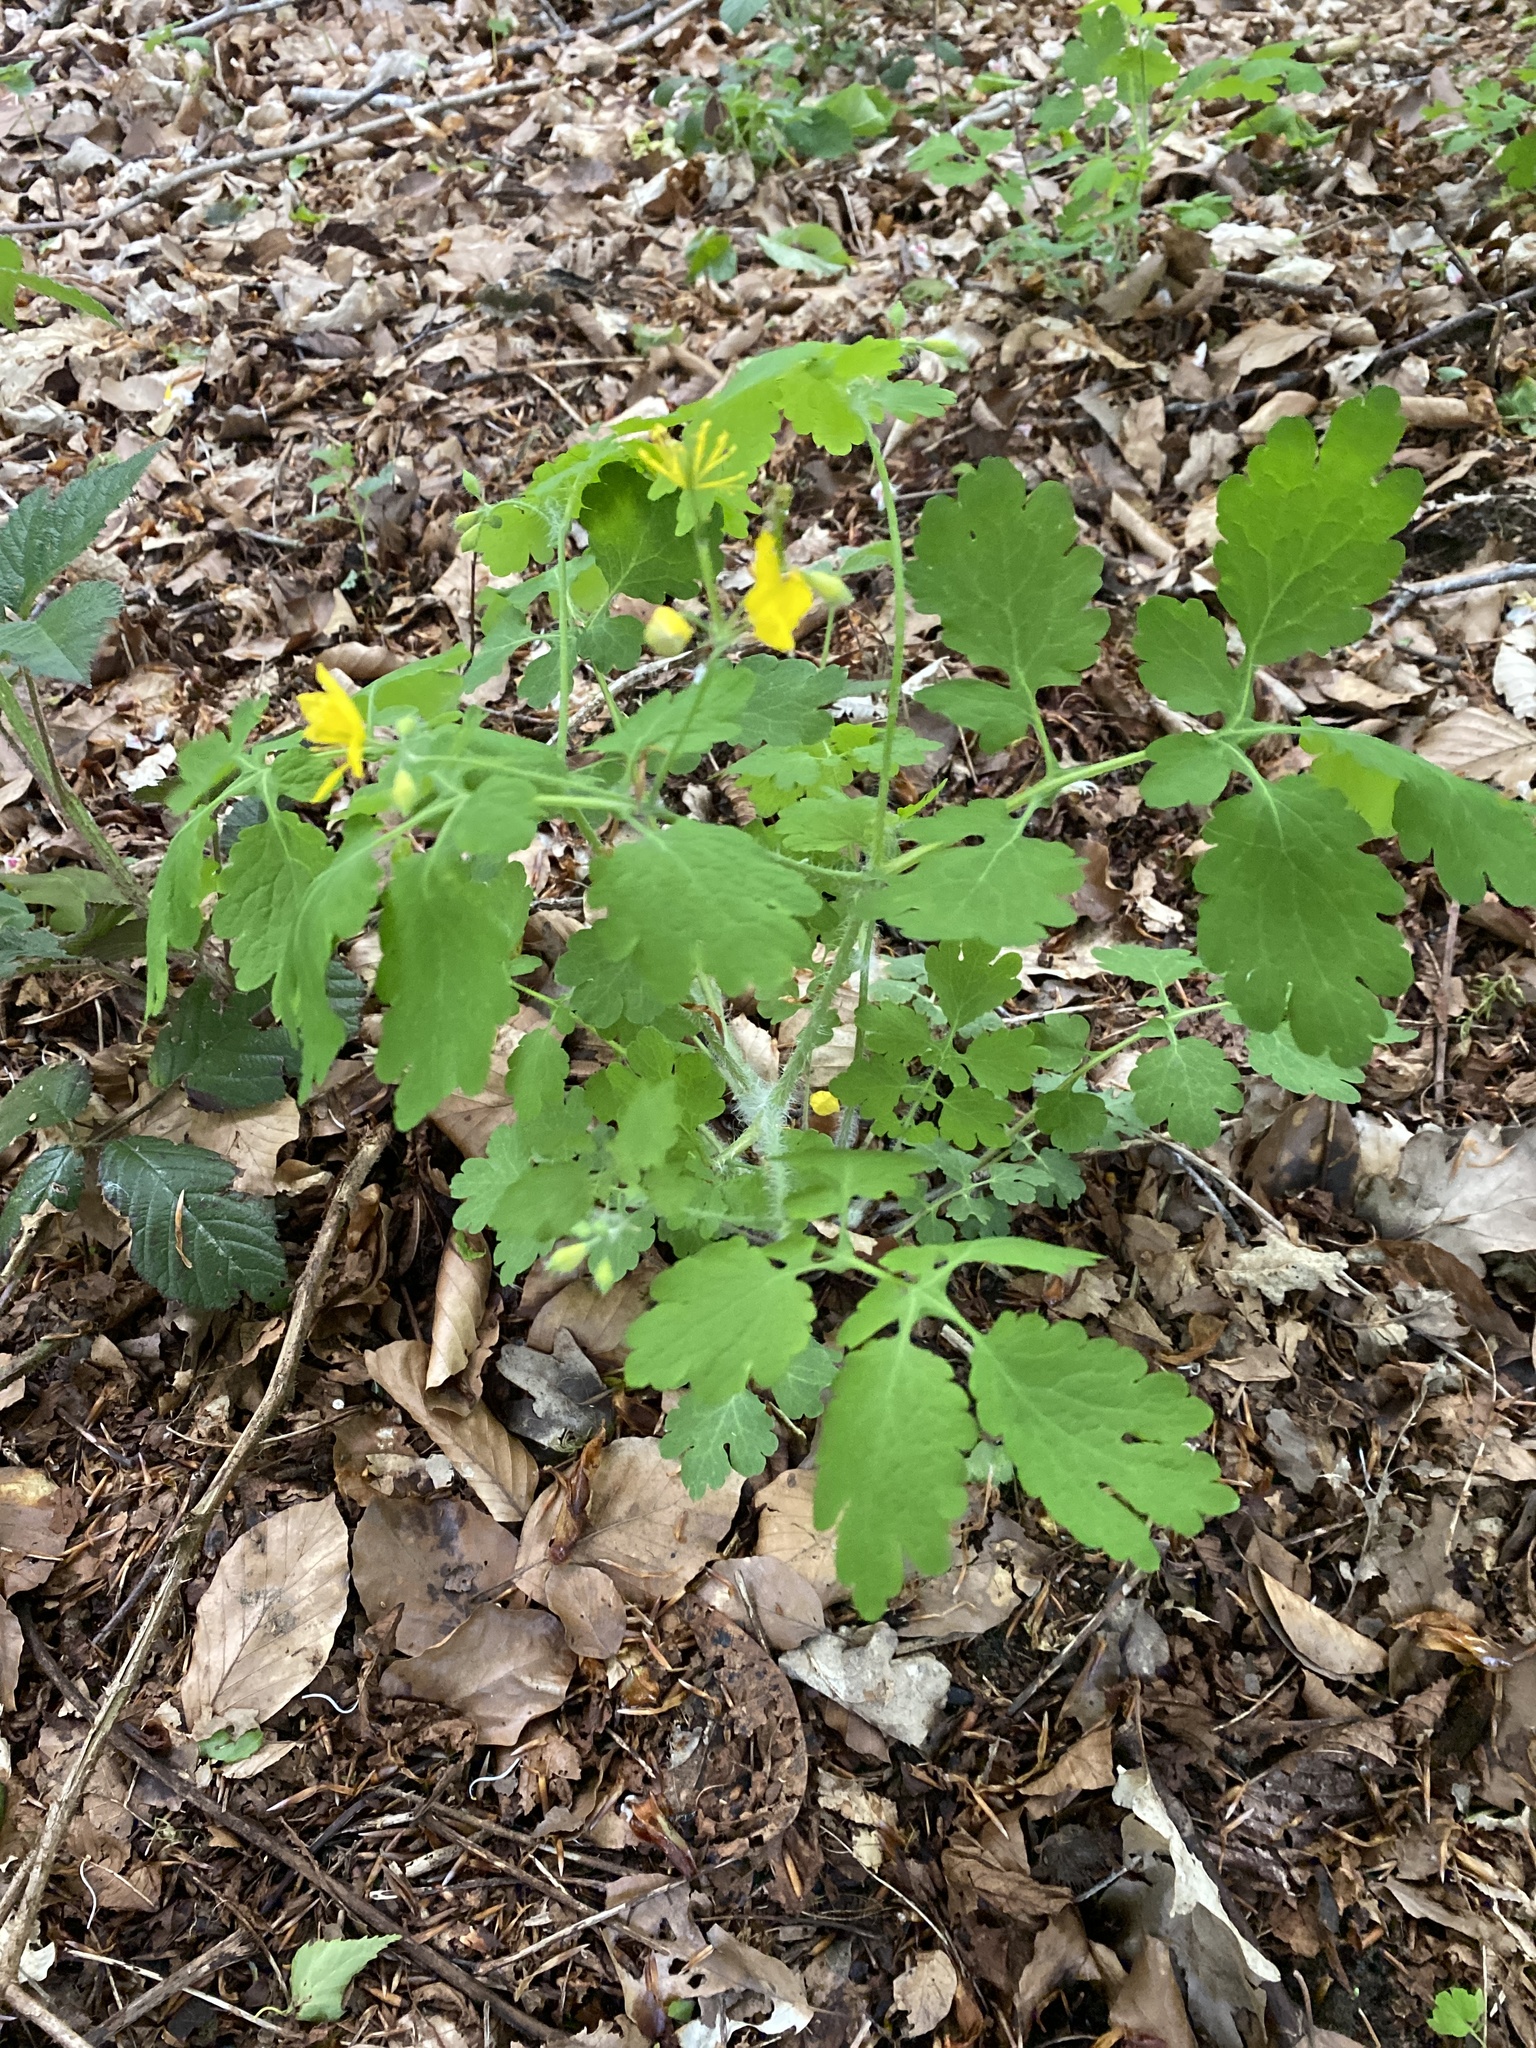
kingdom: Plantae
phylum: Tracheophyta
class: Magnoliopsida
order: Ranunculales
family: Papaveraceae
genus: Chelidonium
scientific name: Chelidonium majus
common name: Greater celandine
